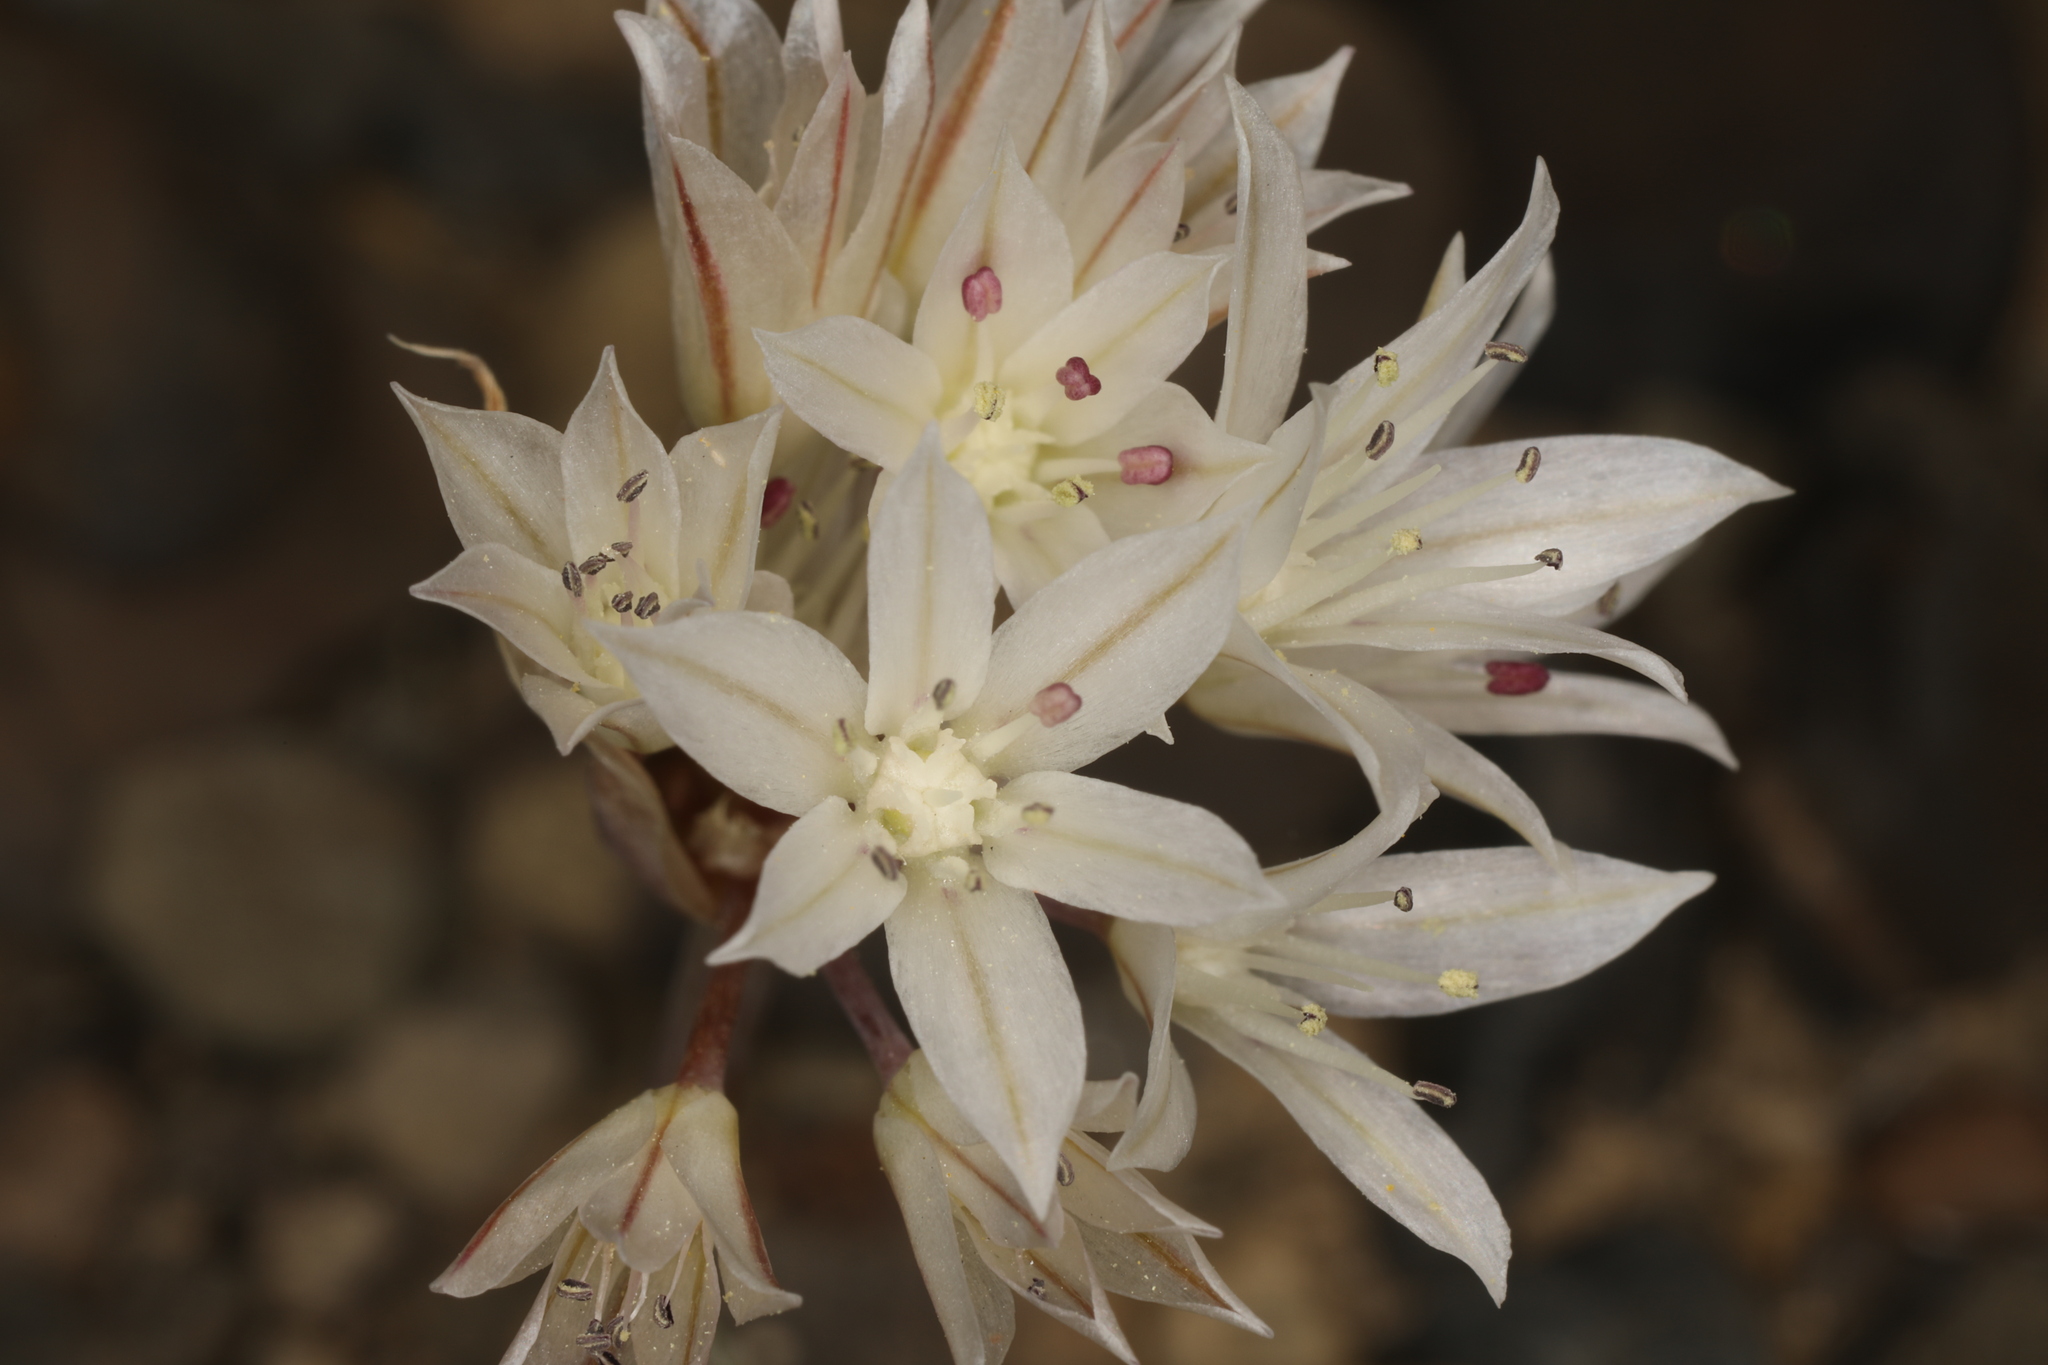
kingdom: Plantae
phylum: Tracheophyta
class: Liliopsida
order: Asparagales
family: Amaryllidaceae
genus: Allium
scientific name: Allium atrorubens
